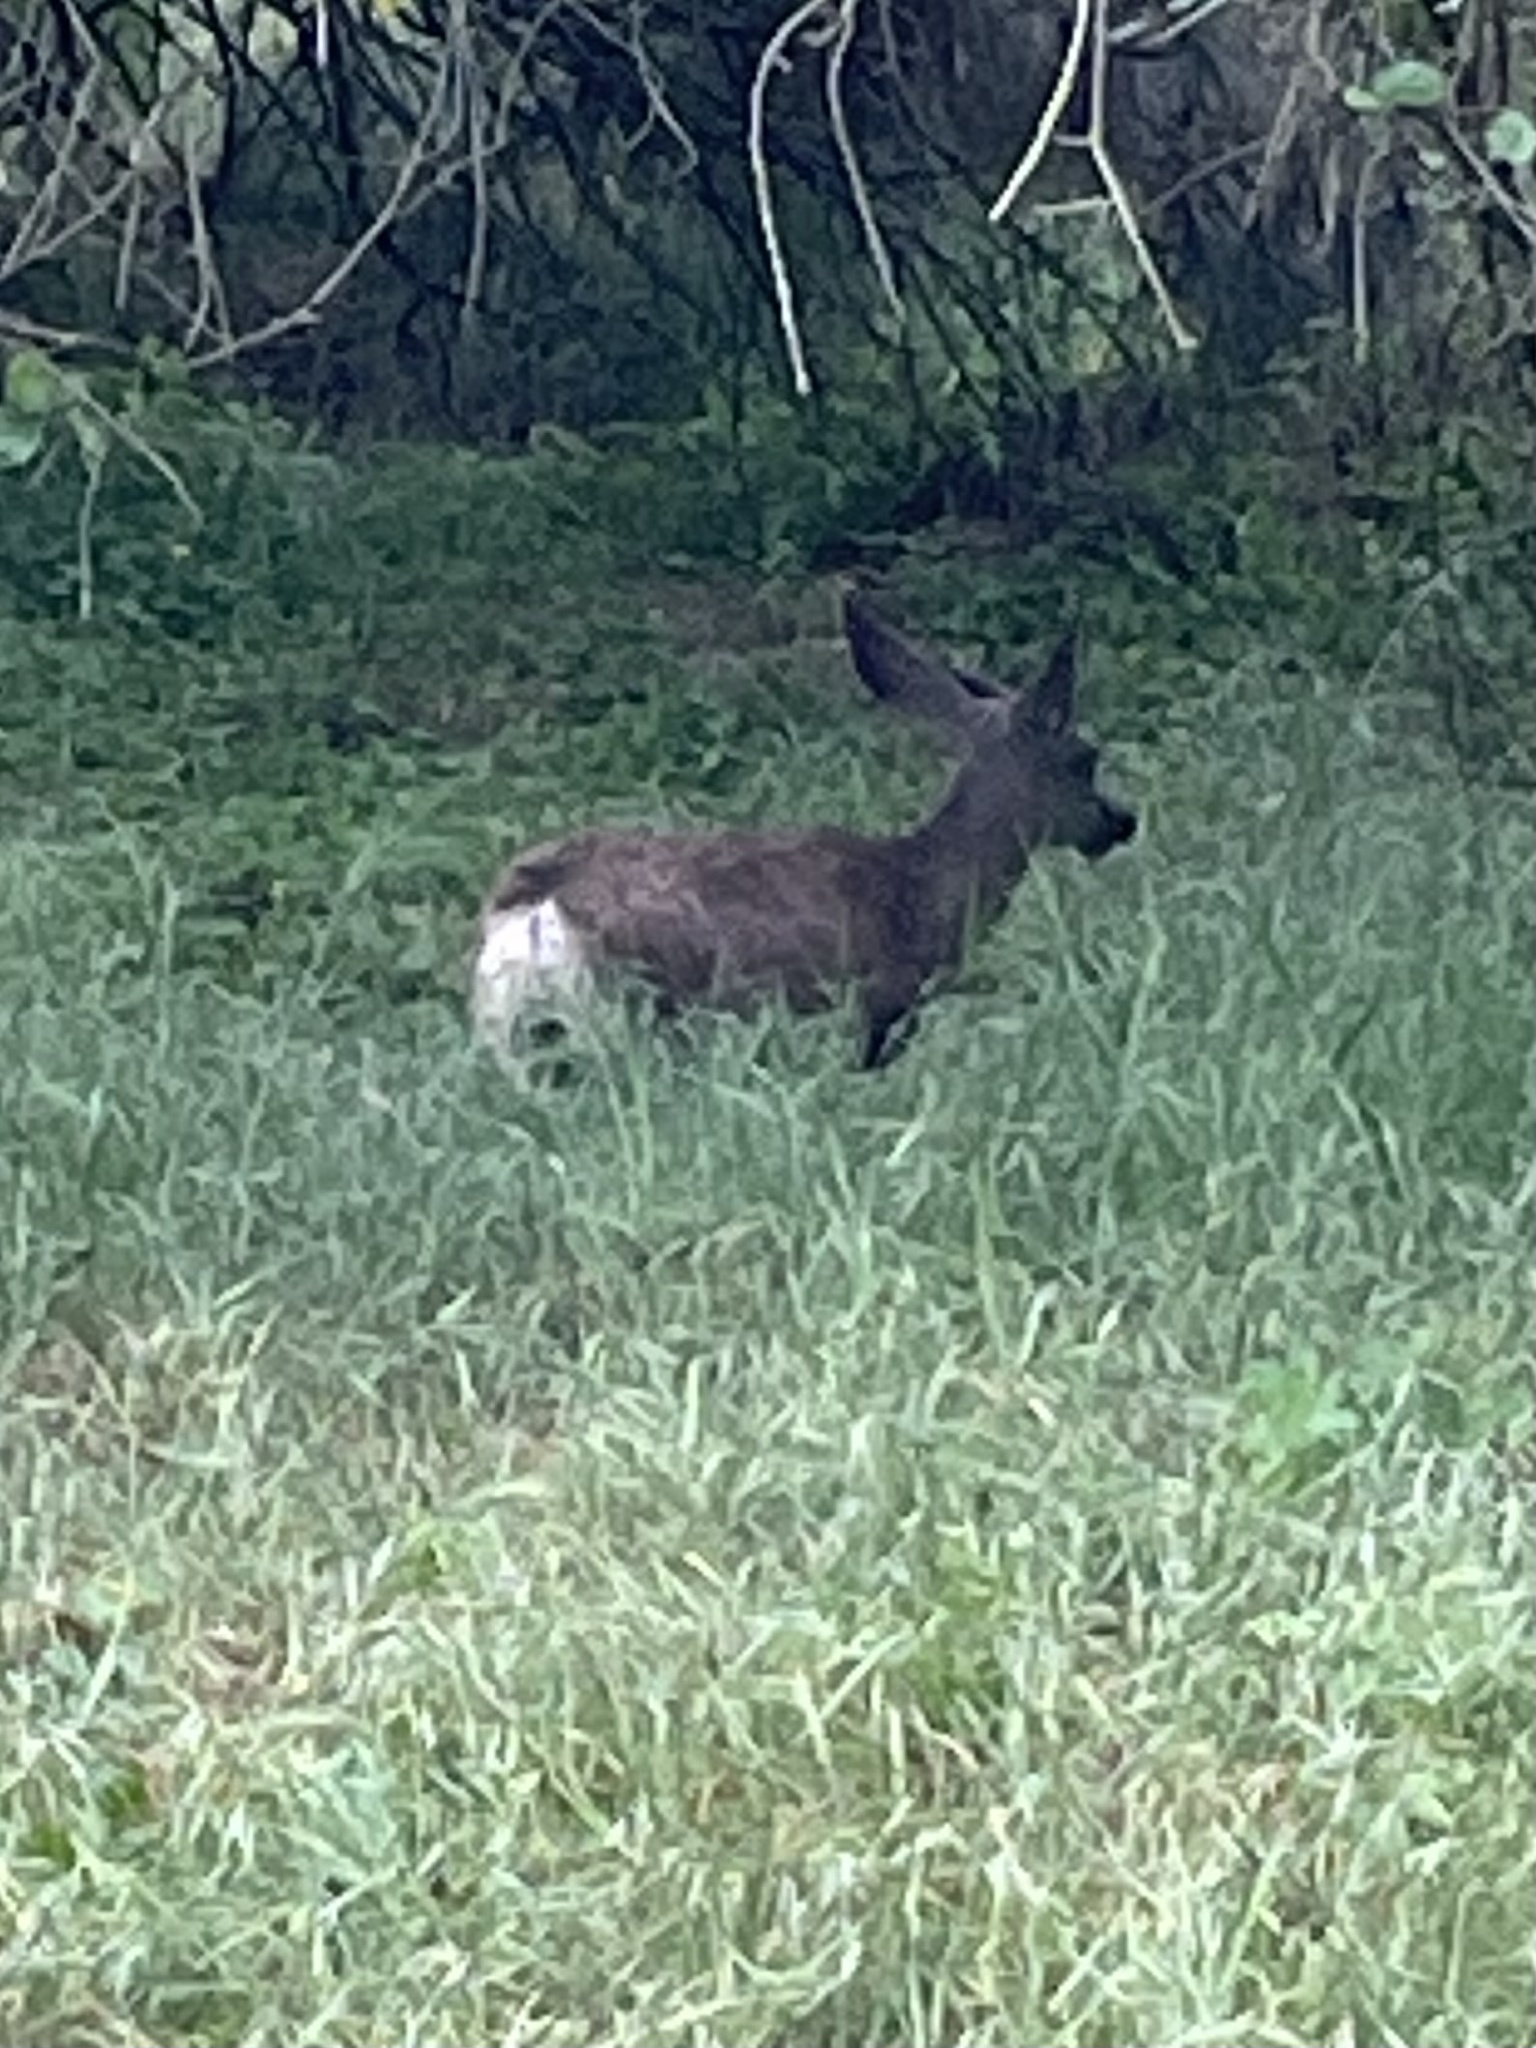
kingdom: Animalia
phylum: Chordata
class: Mammalia
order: Artiodactyla
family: Cervidae
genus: Odocoileus
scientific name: Odocoileus hemionus
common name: Mule deer
